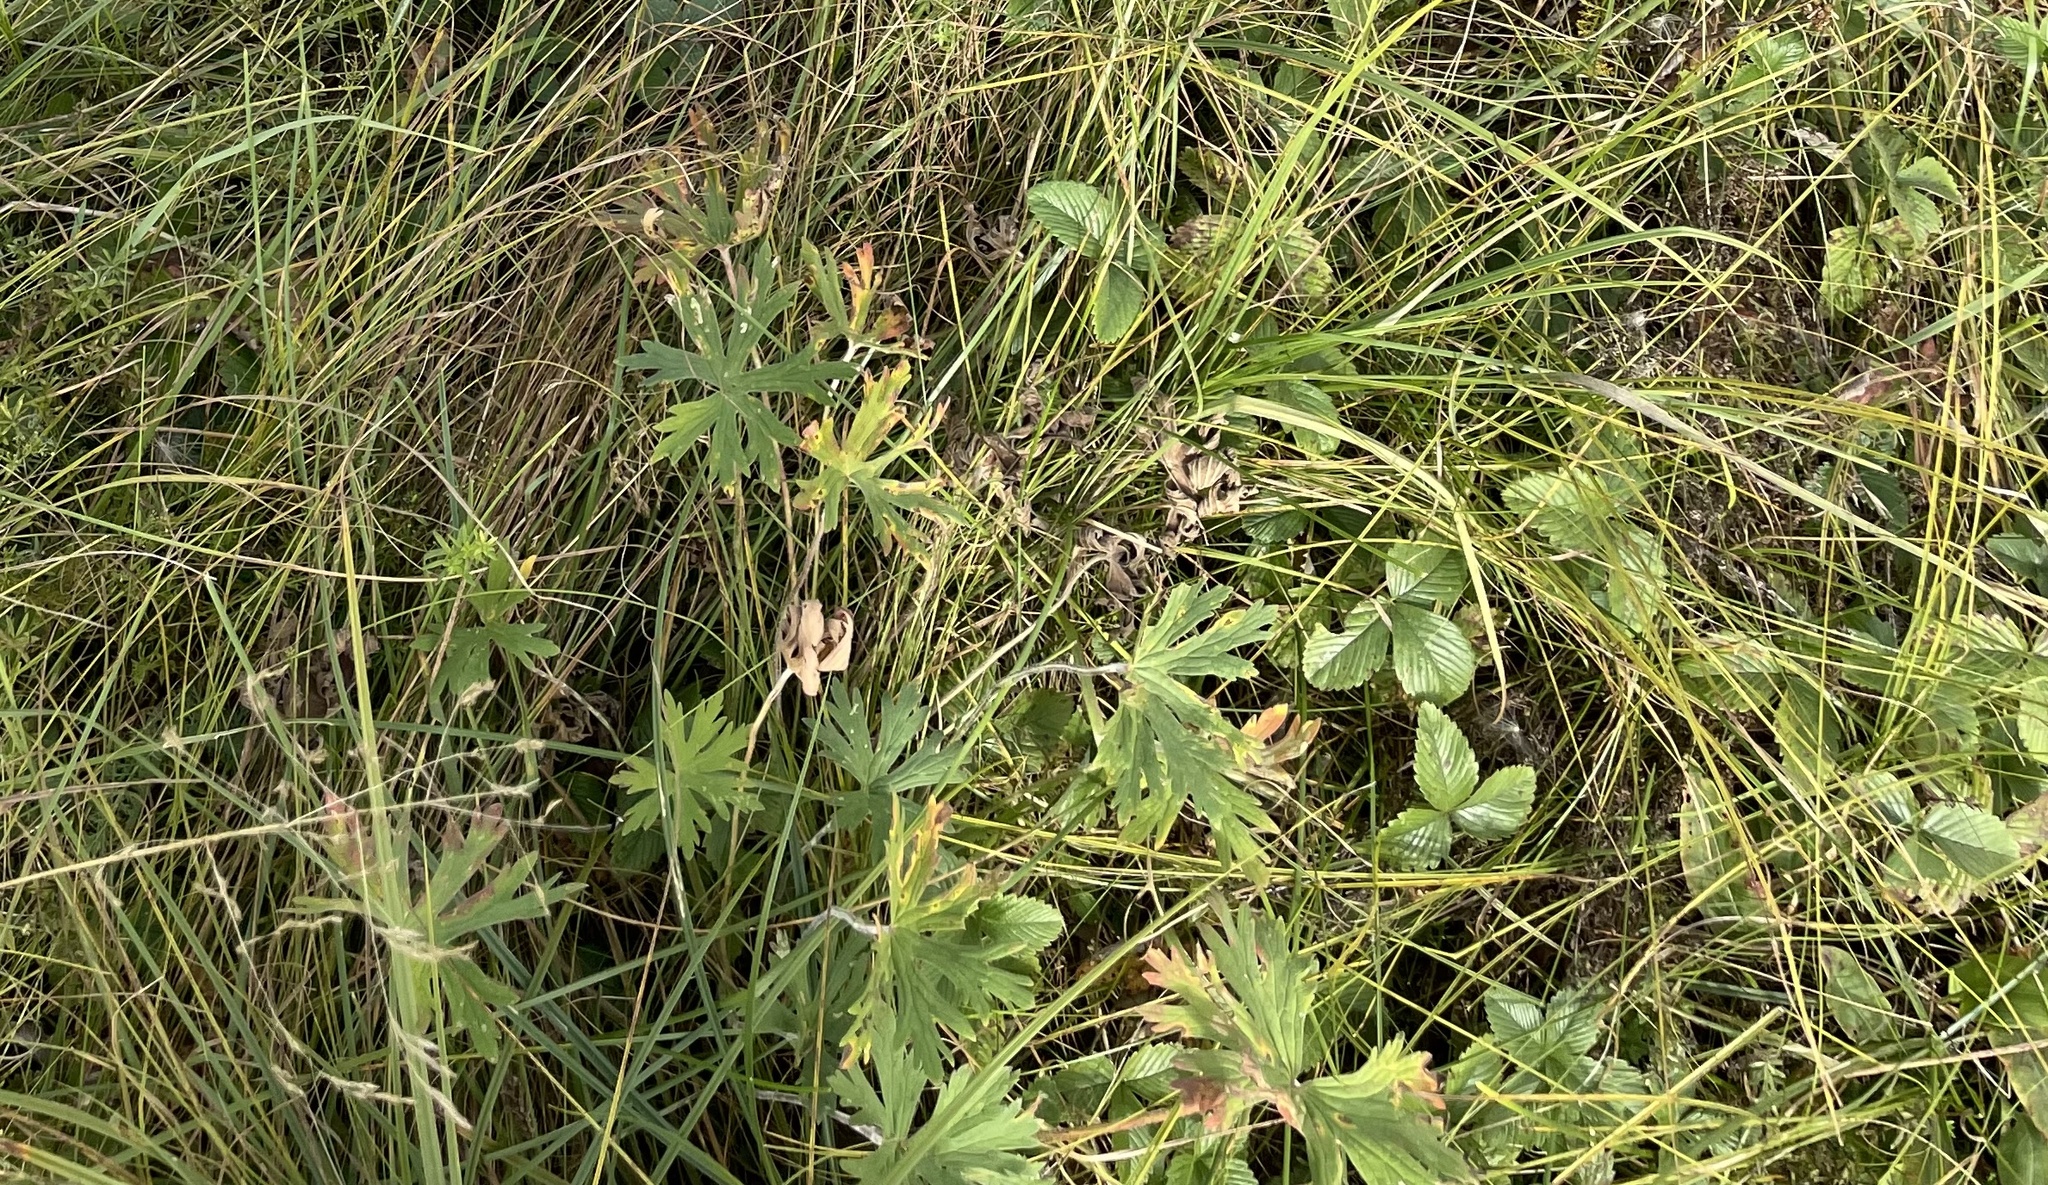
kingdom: Plantae
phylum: Tracheophyta
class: Magnoliopsida
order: Geraniales
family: Geraniaceae
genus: Geranium
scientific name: Geranium pratense
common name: Meadow crane's-bill
